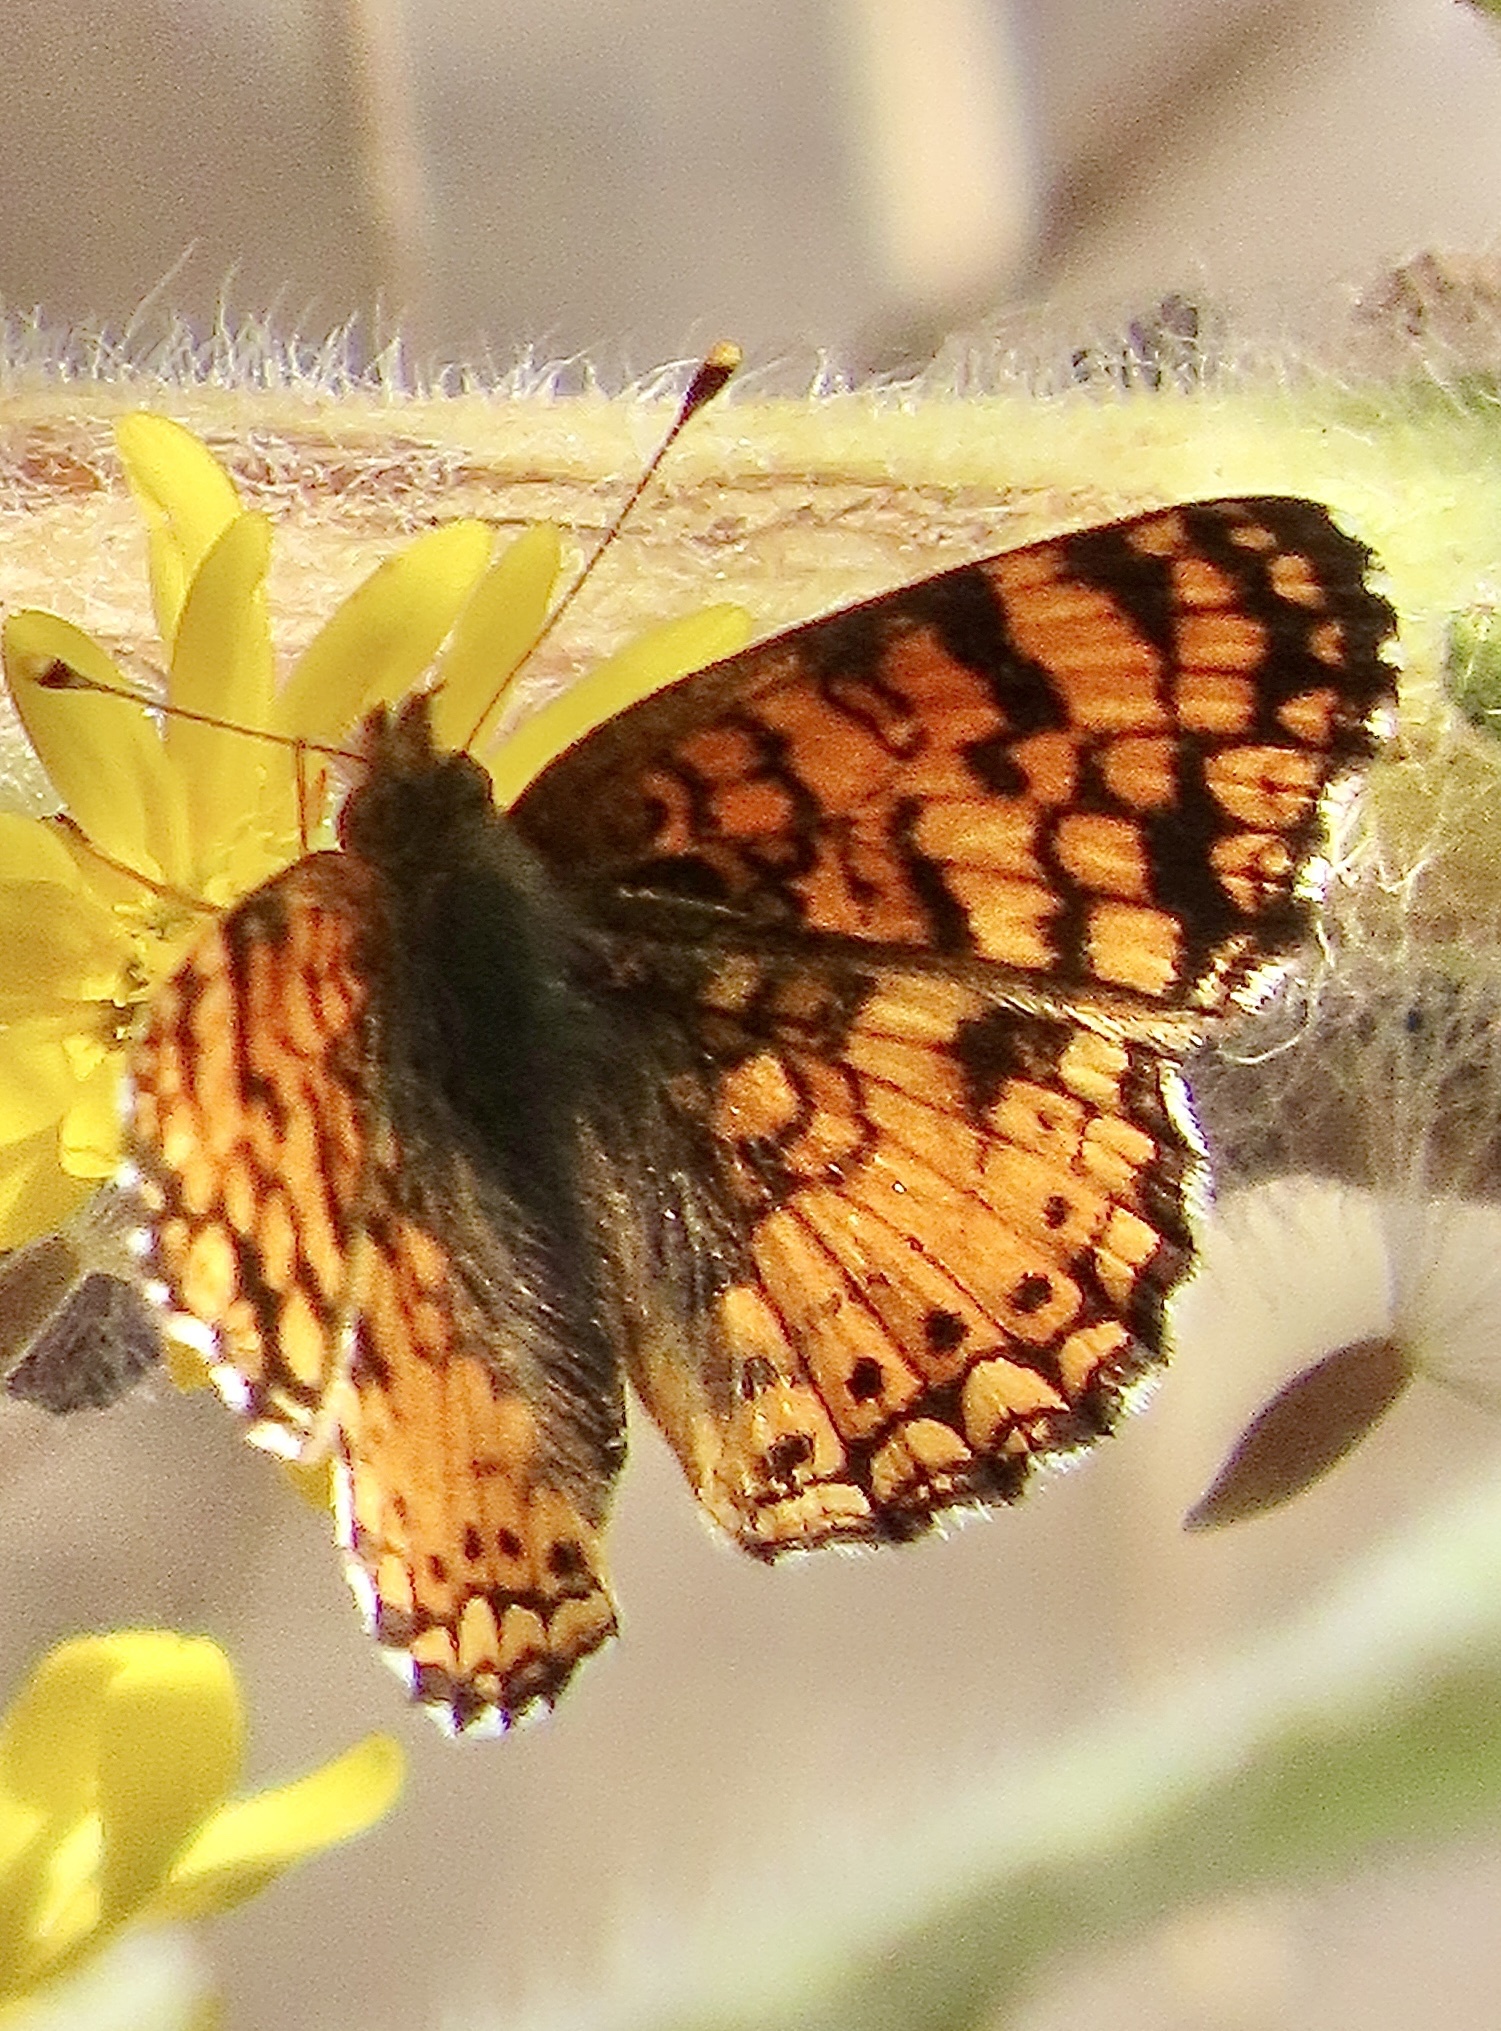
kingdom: Animalia
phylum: Arthropoda
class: Insecta
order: Lepidoptera
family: Nymphalidae
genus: Eresia
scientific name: Eresia aveyrona
